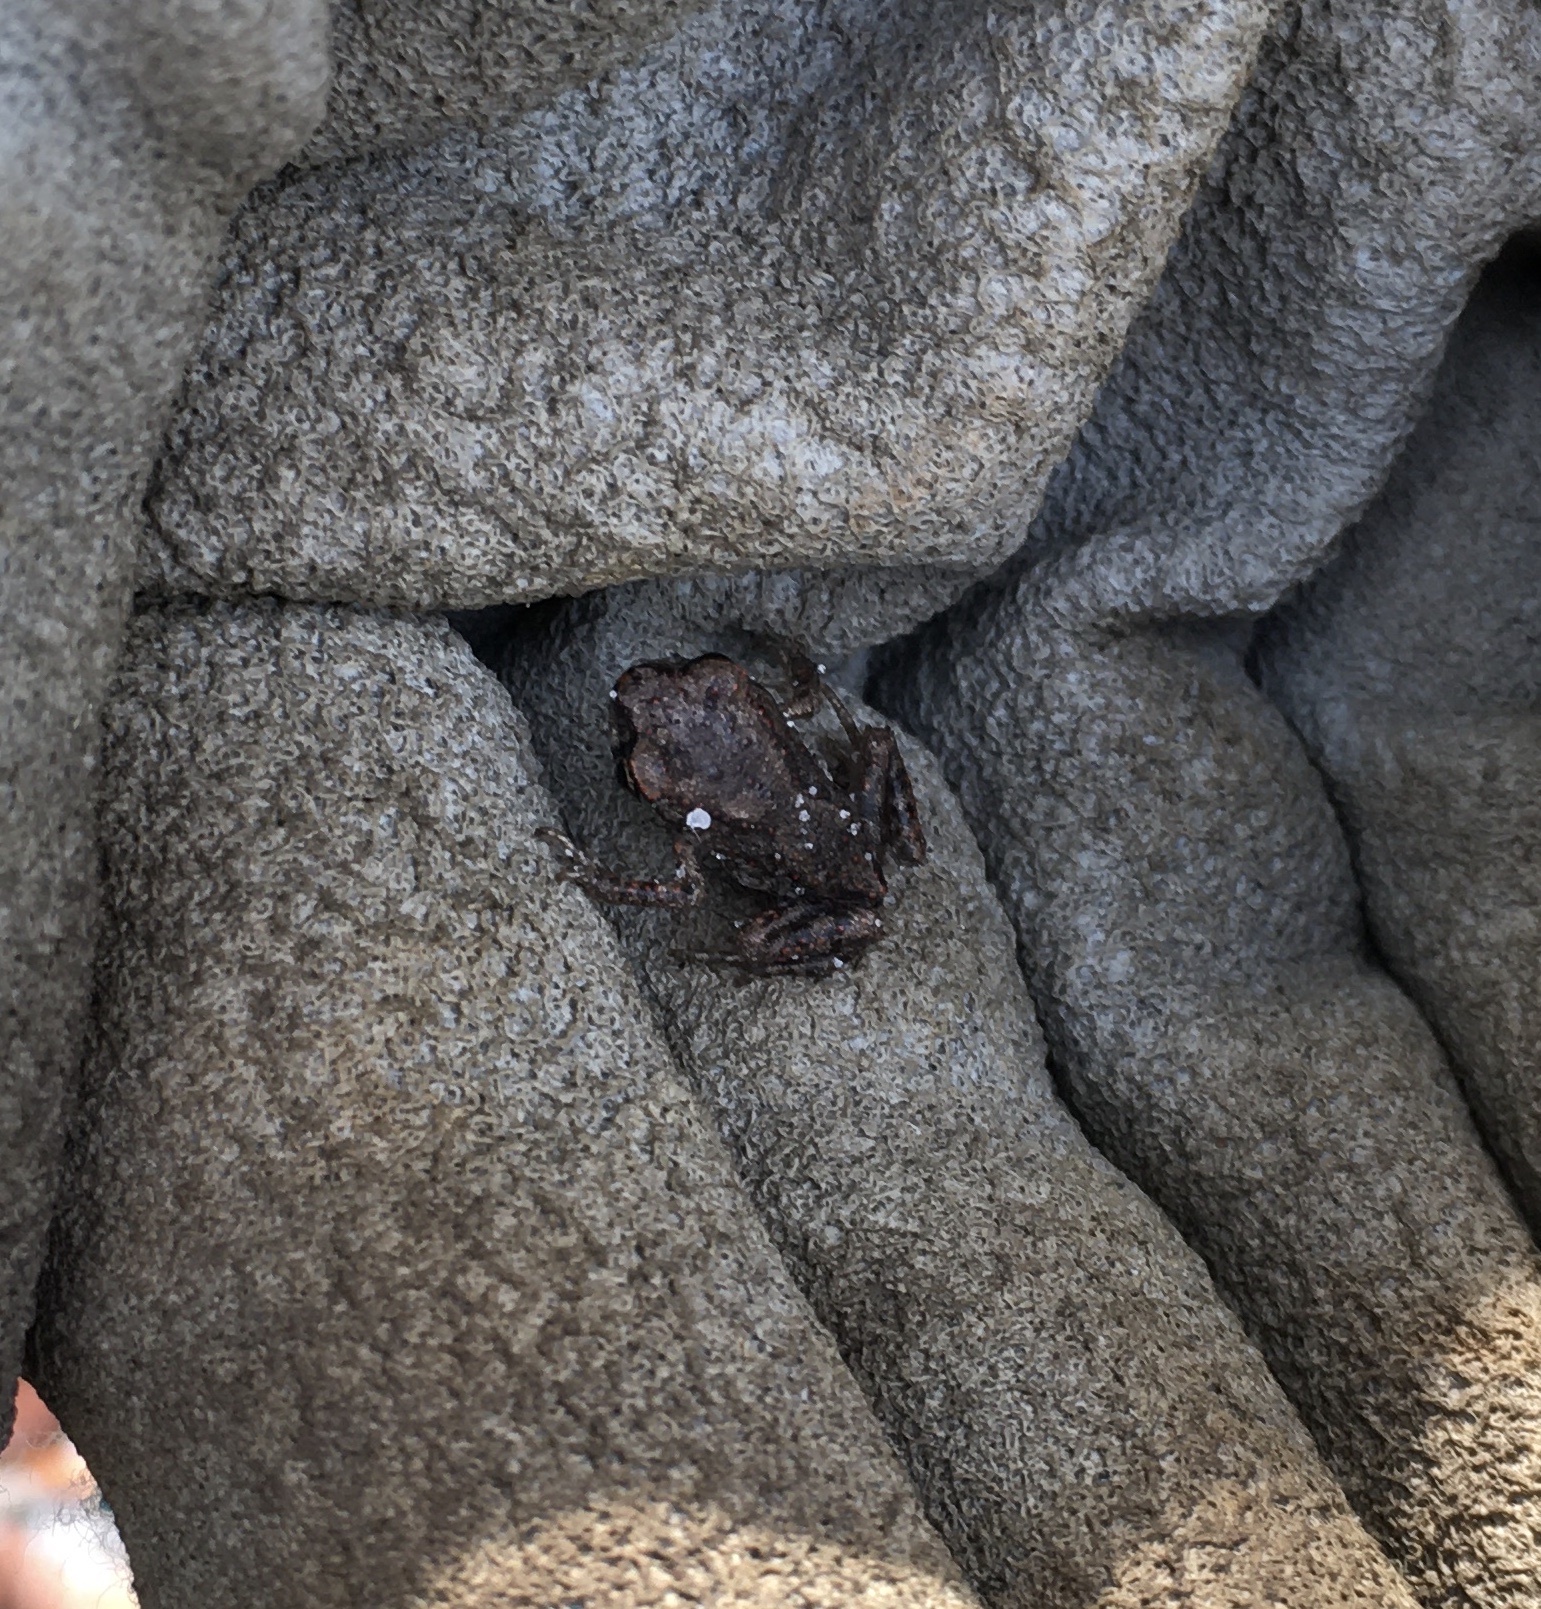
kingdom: Animalia
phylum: Chordata
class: Amphibia
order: Anura
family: Scaphiopodidae
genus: Scaphiopus
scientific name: Scaphiopus holbrookii
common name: Eastern spadefoot toad
